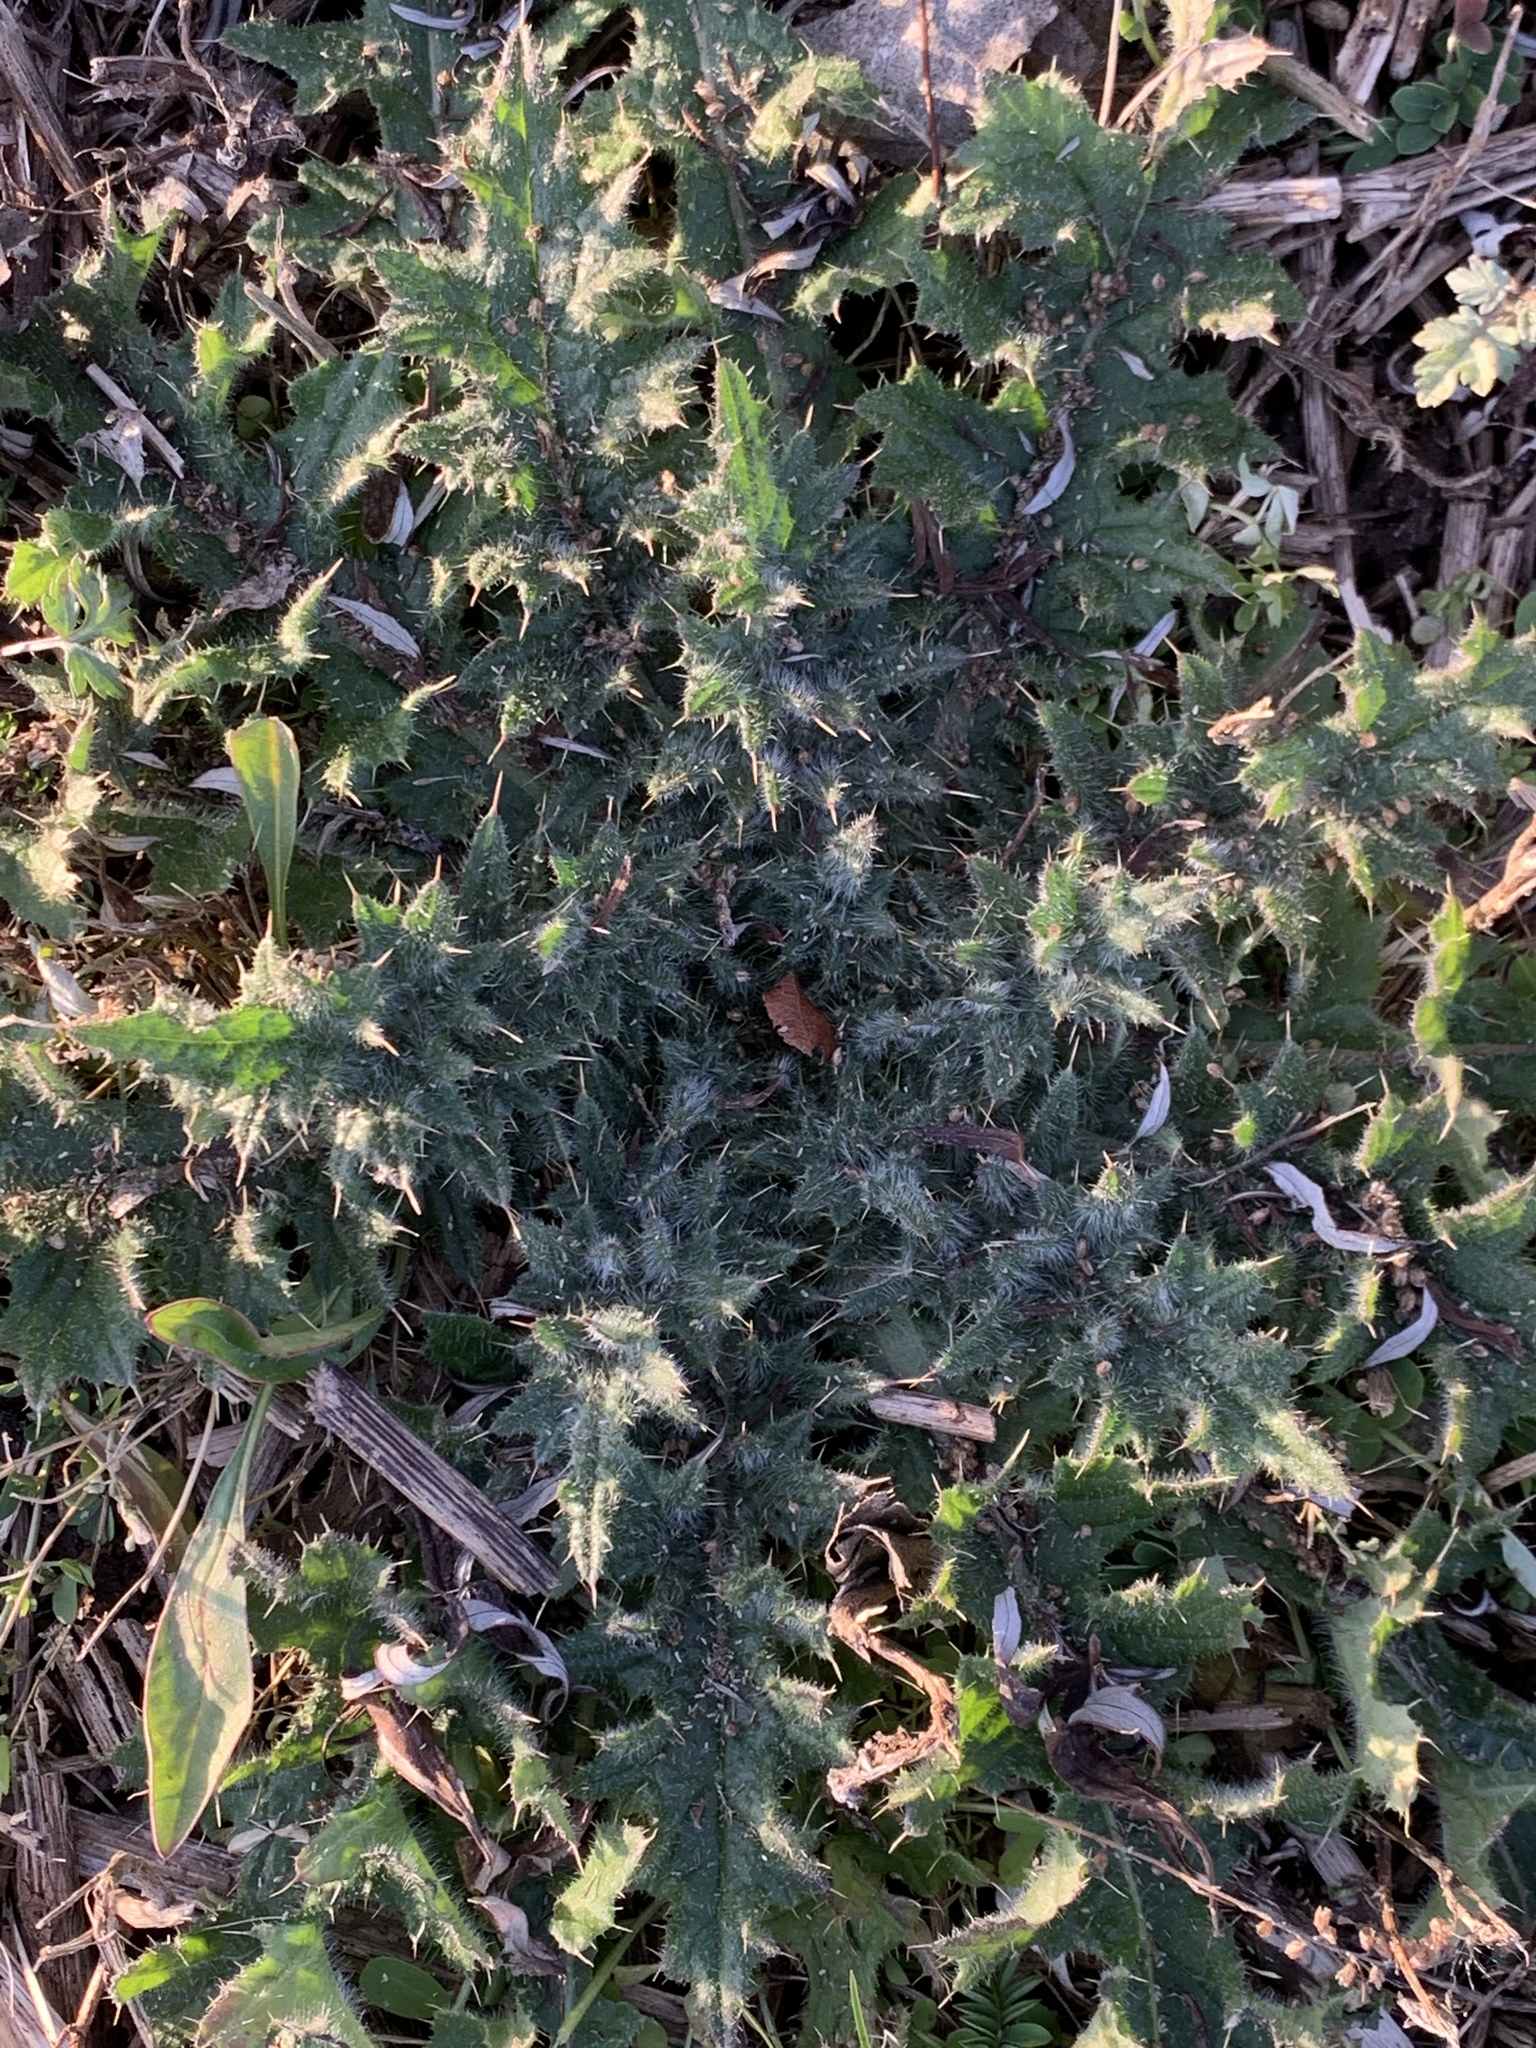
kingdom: Plantae
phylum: Tracheophyta
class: Magnoliopsida
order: Asterales
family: Asteraceae
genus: Cirsium
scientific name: Cirsium vulgare
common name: Bull thistle
